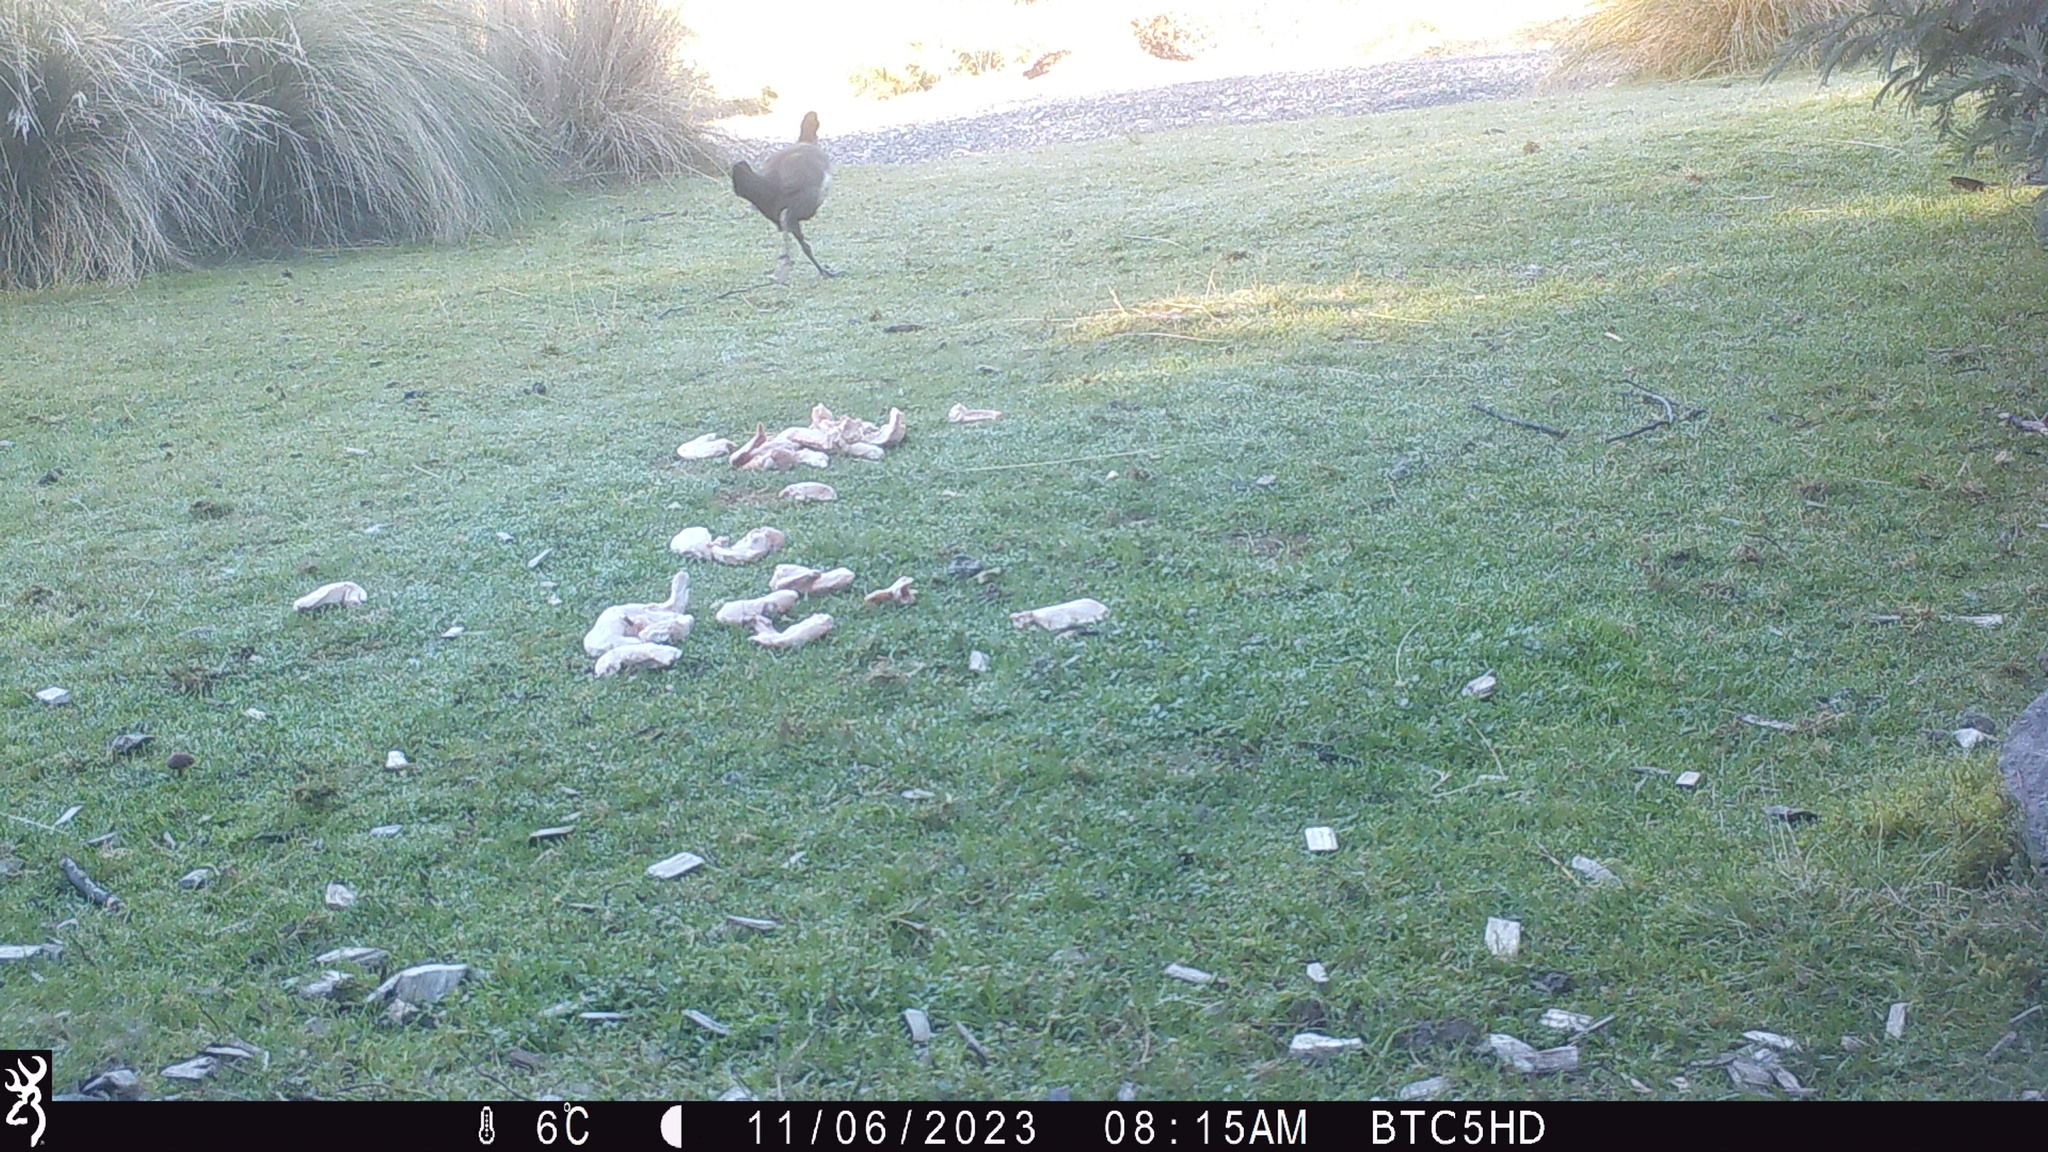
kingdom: Animalia
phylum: Chordata
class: Aves
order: Gruiformes
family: Rallidae
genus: Gallinula
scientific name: Gallinula mortierii
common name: Tasmanian nativehen
